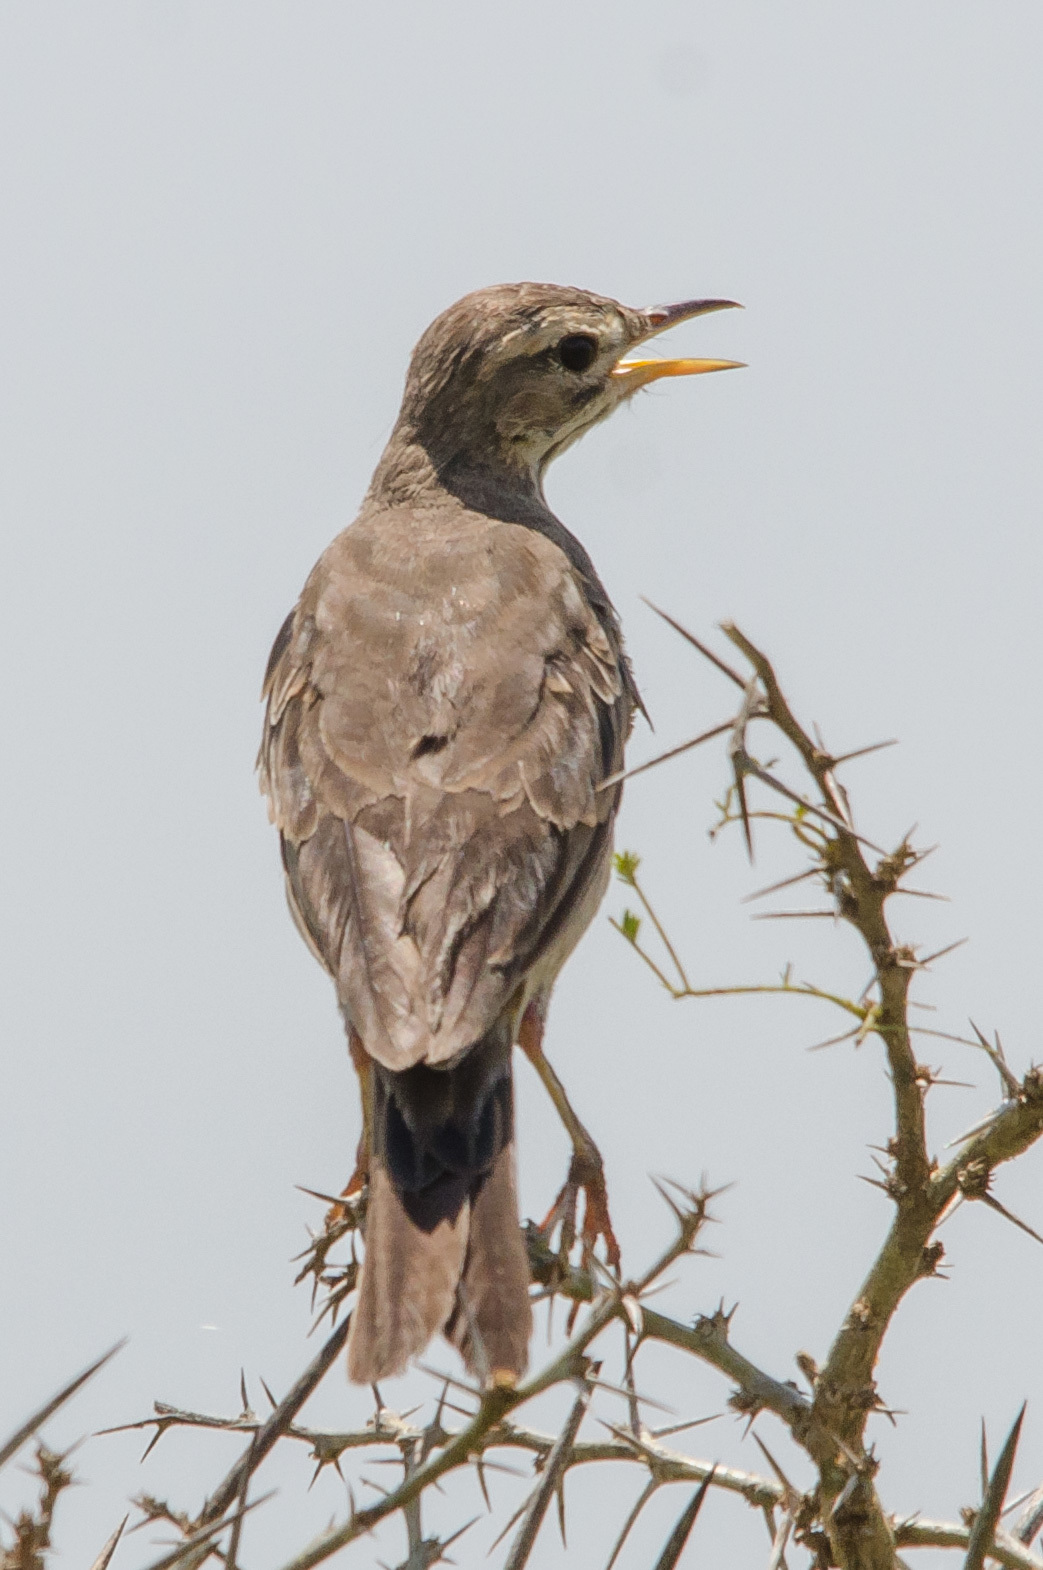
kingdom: Animalia
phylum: Chordata
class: Aves
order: Passeriformes
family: Motacillidae
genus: Anthus
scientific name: Anthus leucophrys
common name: Plain-backed pipit
